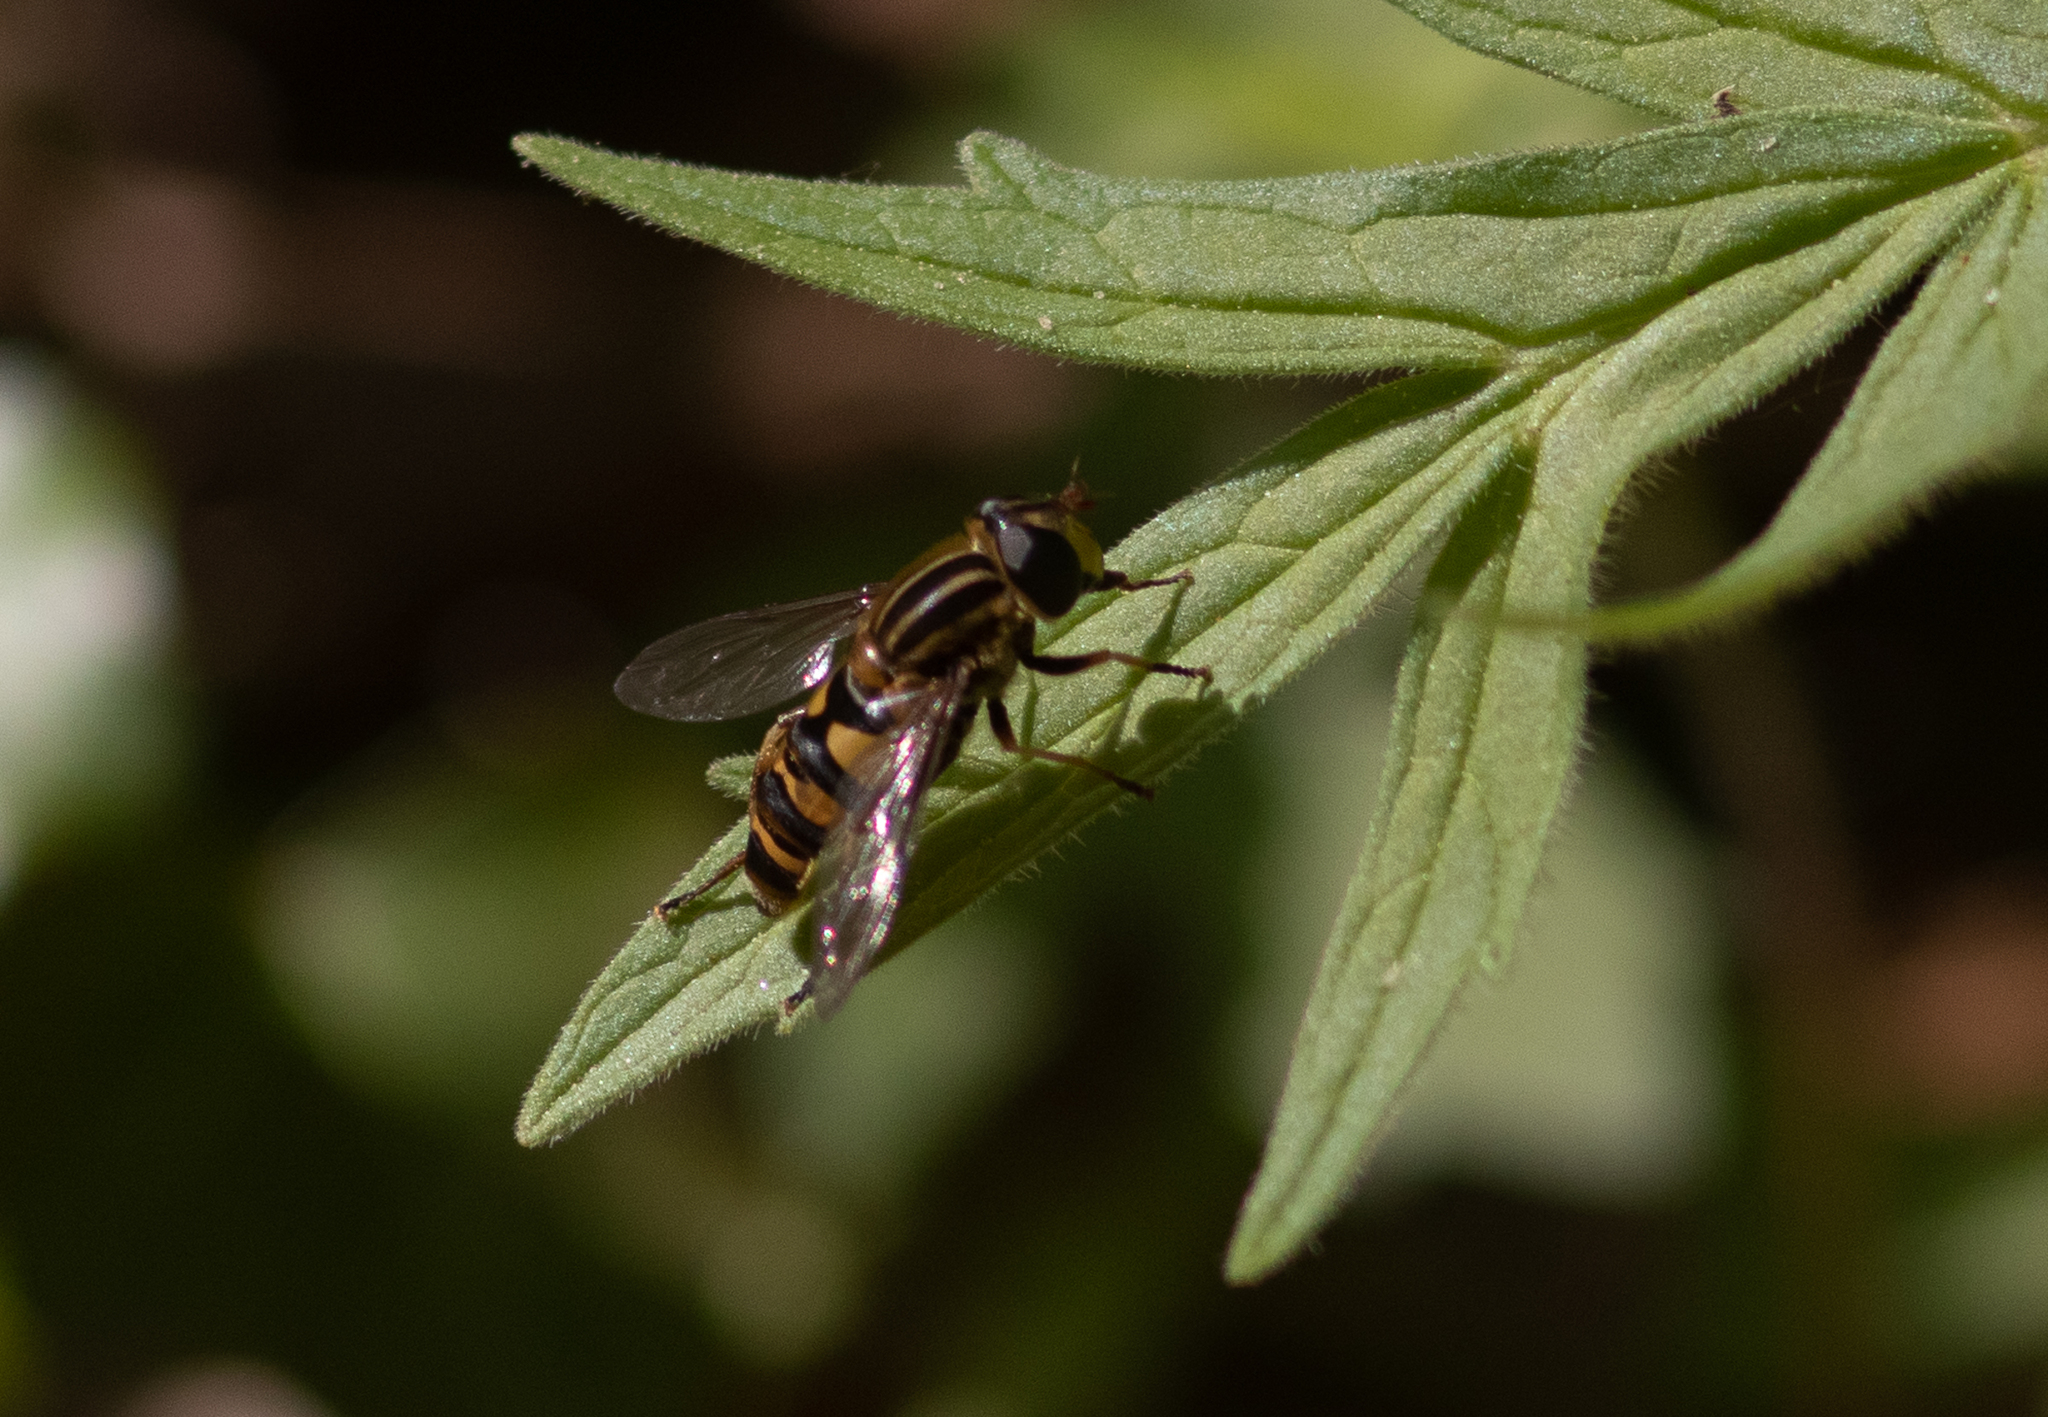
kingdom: Animalia
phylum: Arthropoda
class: Insecta
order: Diptera
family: Syrphidae
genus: Helophilus
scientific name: Helophilus fasciatus
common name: Narrow-headed marsh fly
